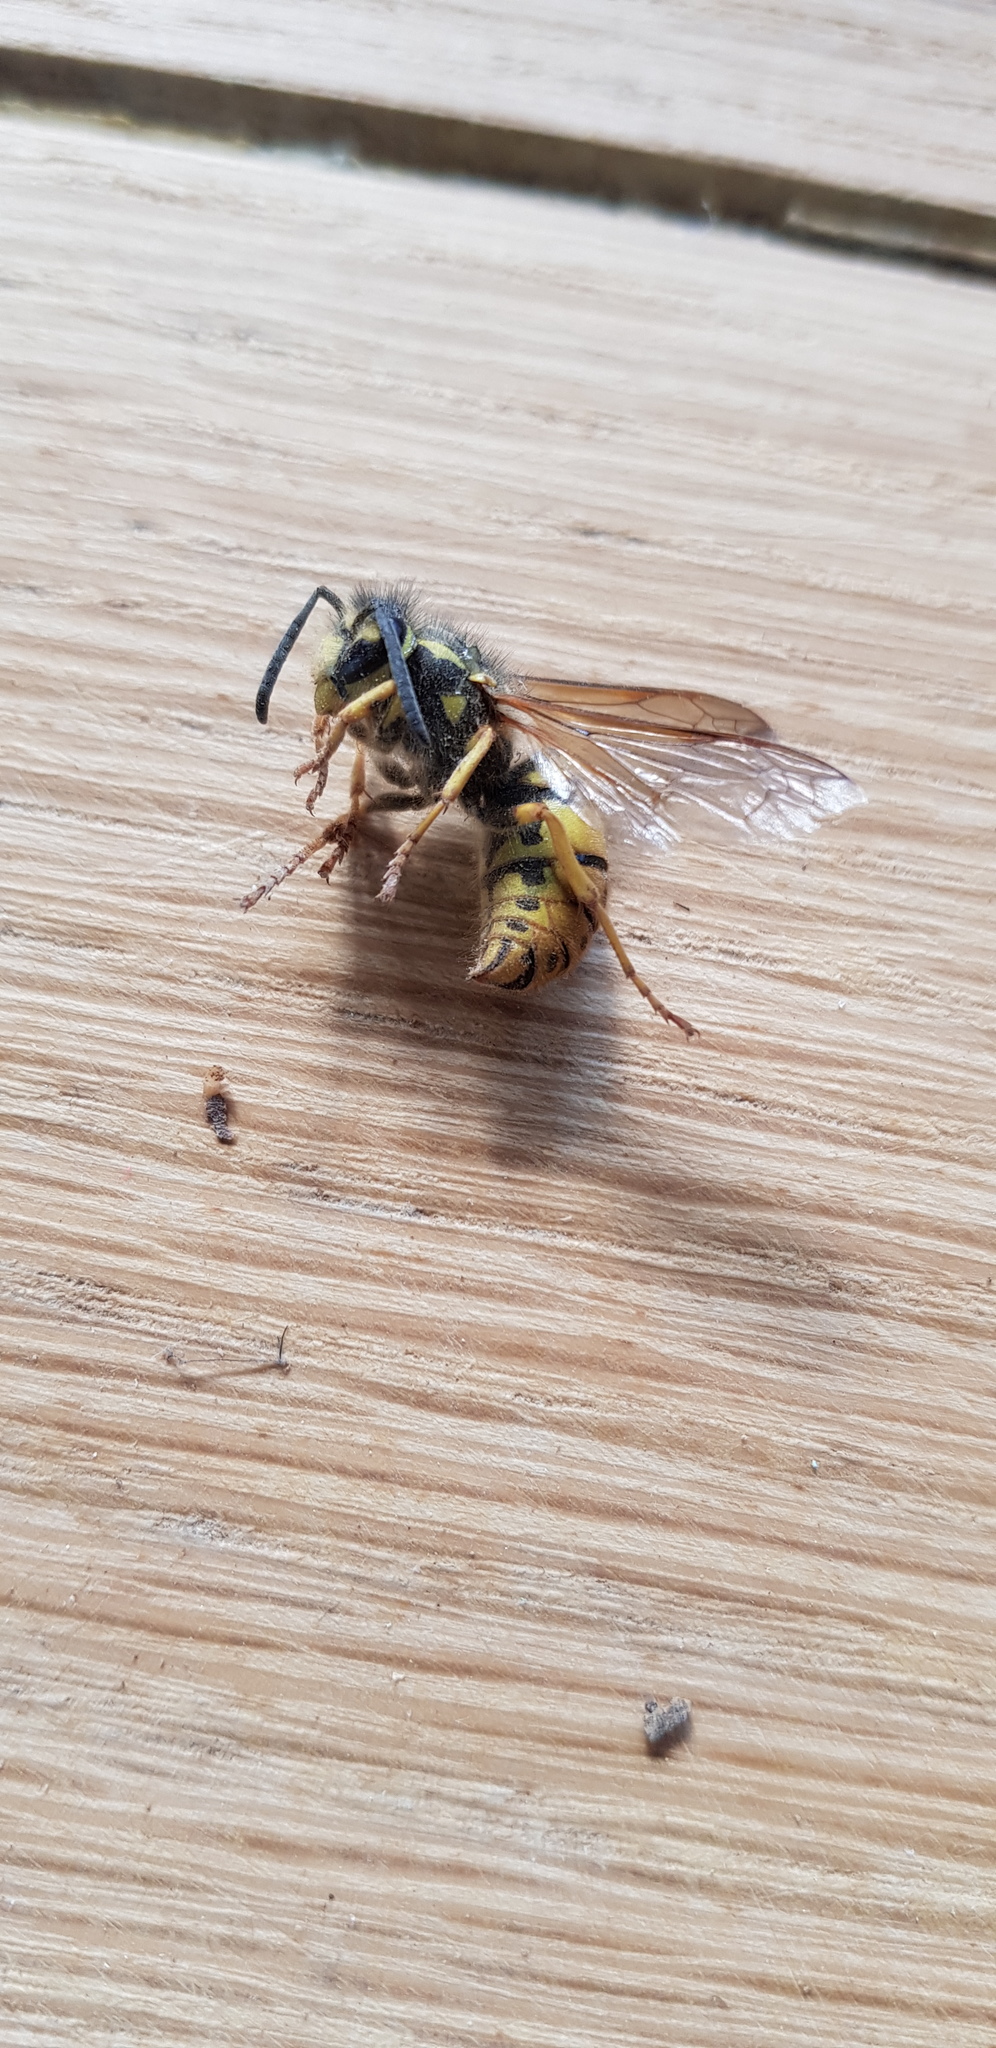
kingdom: Animalia
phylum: Arthropoda
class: Insecta
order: Hymenoptera
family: Vespidae
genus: Vespula
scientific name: Vespula germanica
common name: German wasp
